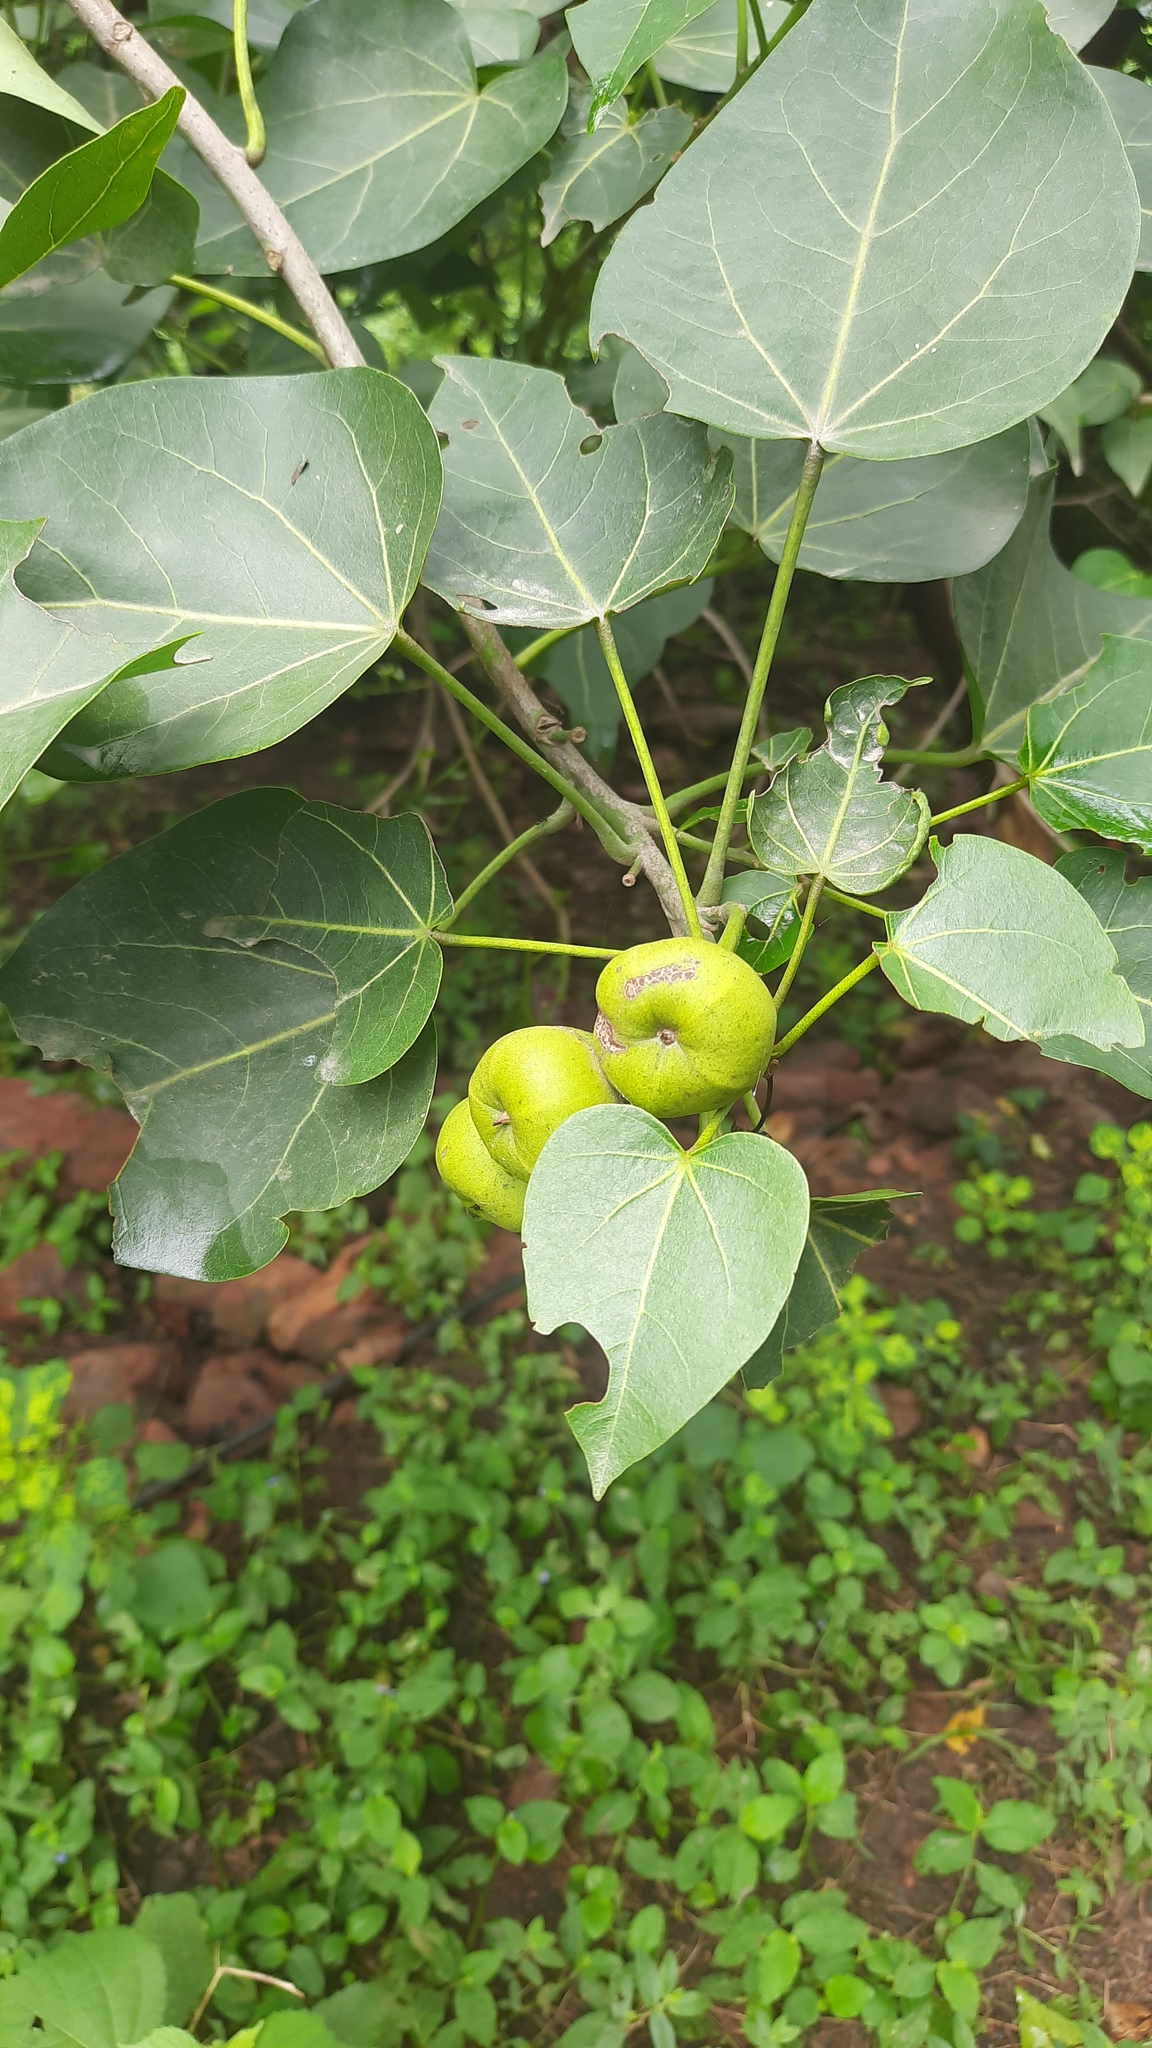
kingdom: Plantae
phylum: Tracheophyta
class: Magnoliopsida
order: Malvales
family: Malvaceae
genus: Thespesia
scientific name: Thespesia populnea
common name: Seaside mahoe
